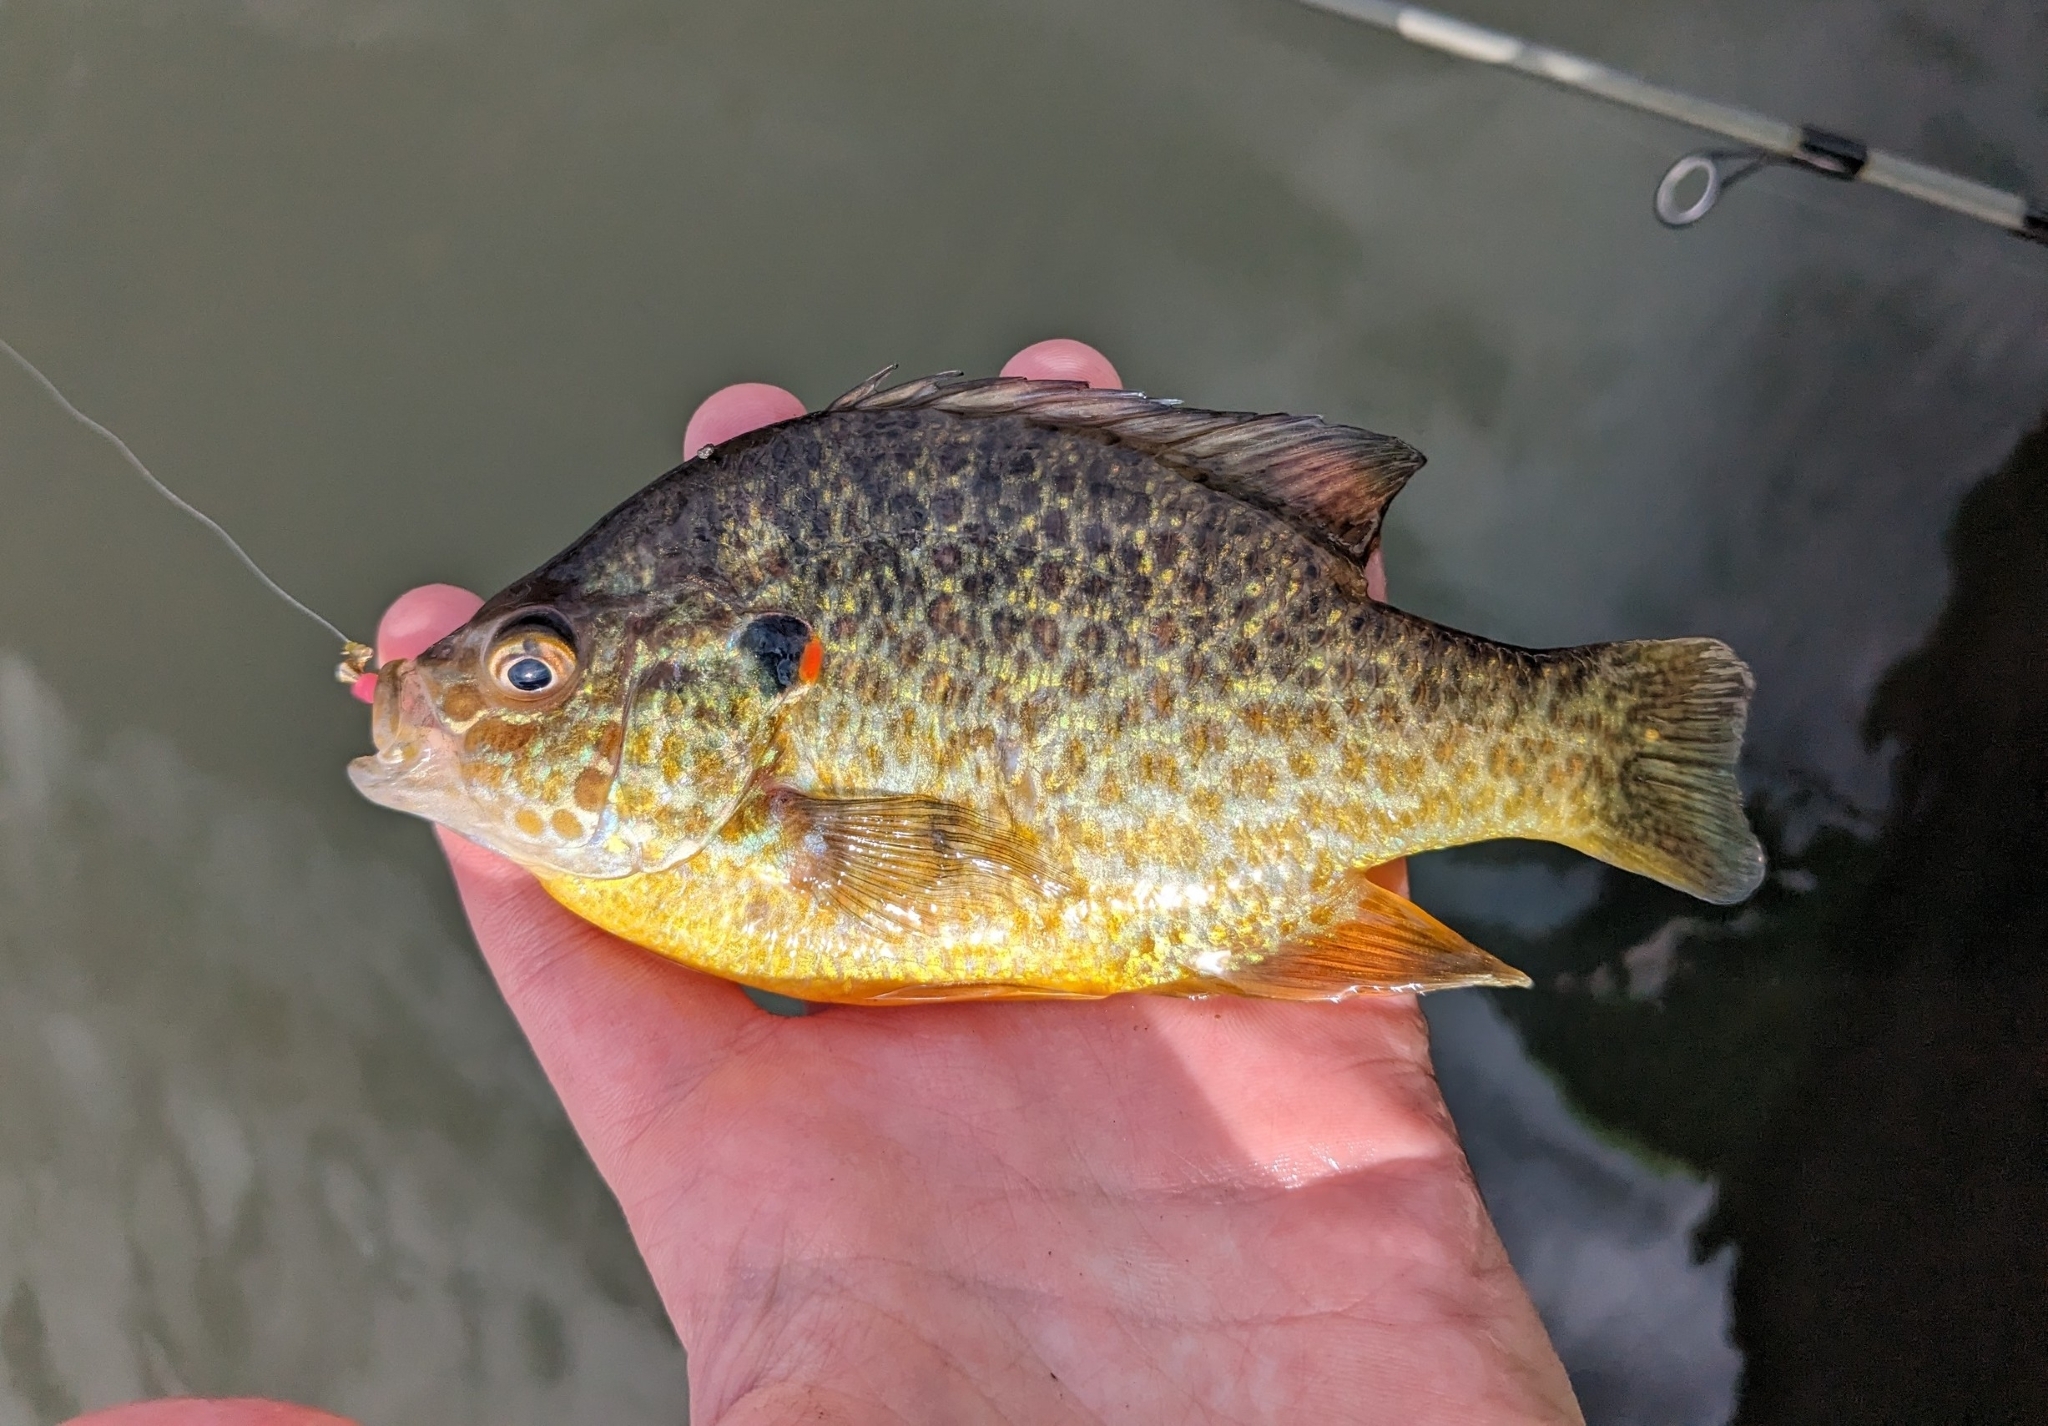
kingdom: Animalia
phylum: Chordata
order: Perciformes
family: Centrarchidae
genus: Lepomis
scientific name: Lepomis gibbosus
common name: Pumpkinseed
